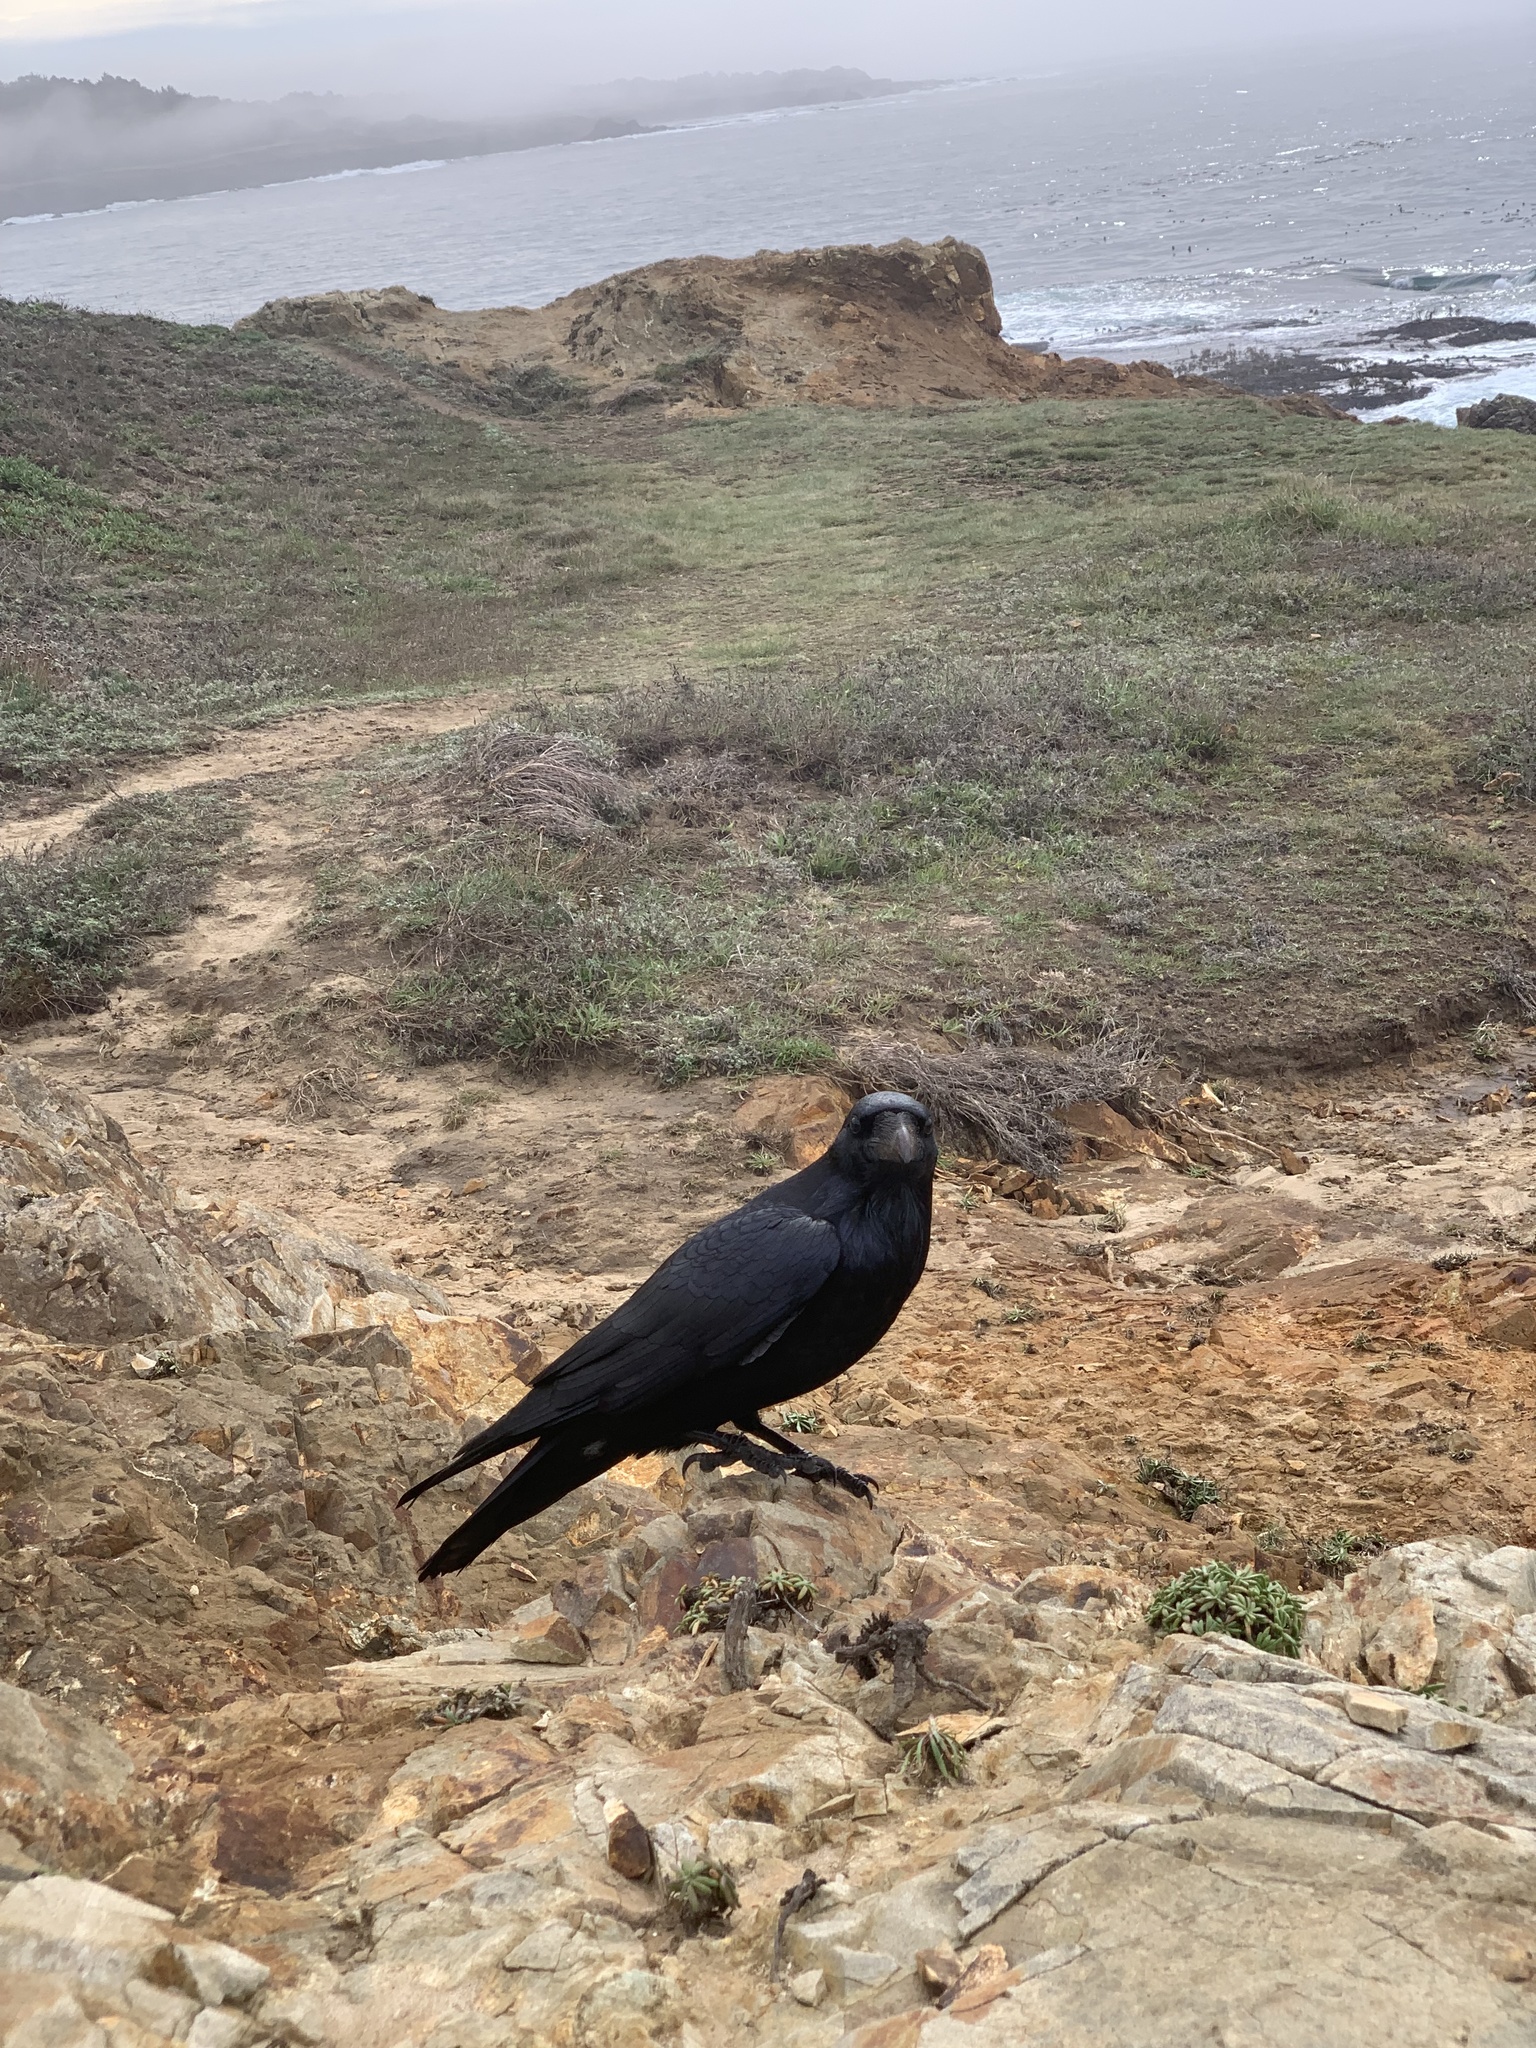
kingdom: Animalia
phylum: Chordata
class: Aves
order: Passeriformes
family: Corvidae
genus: Corvus
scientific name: Corvus corax
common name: Common raven
